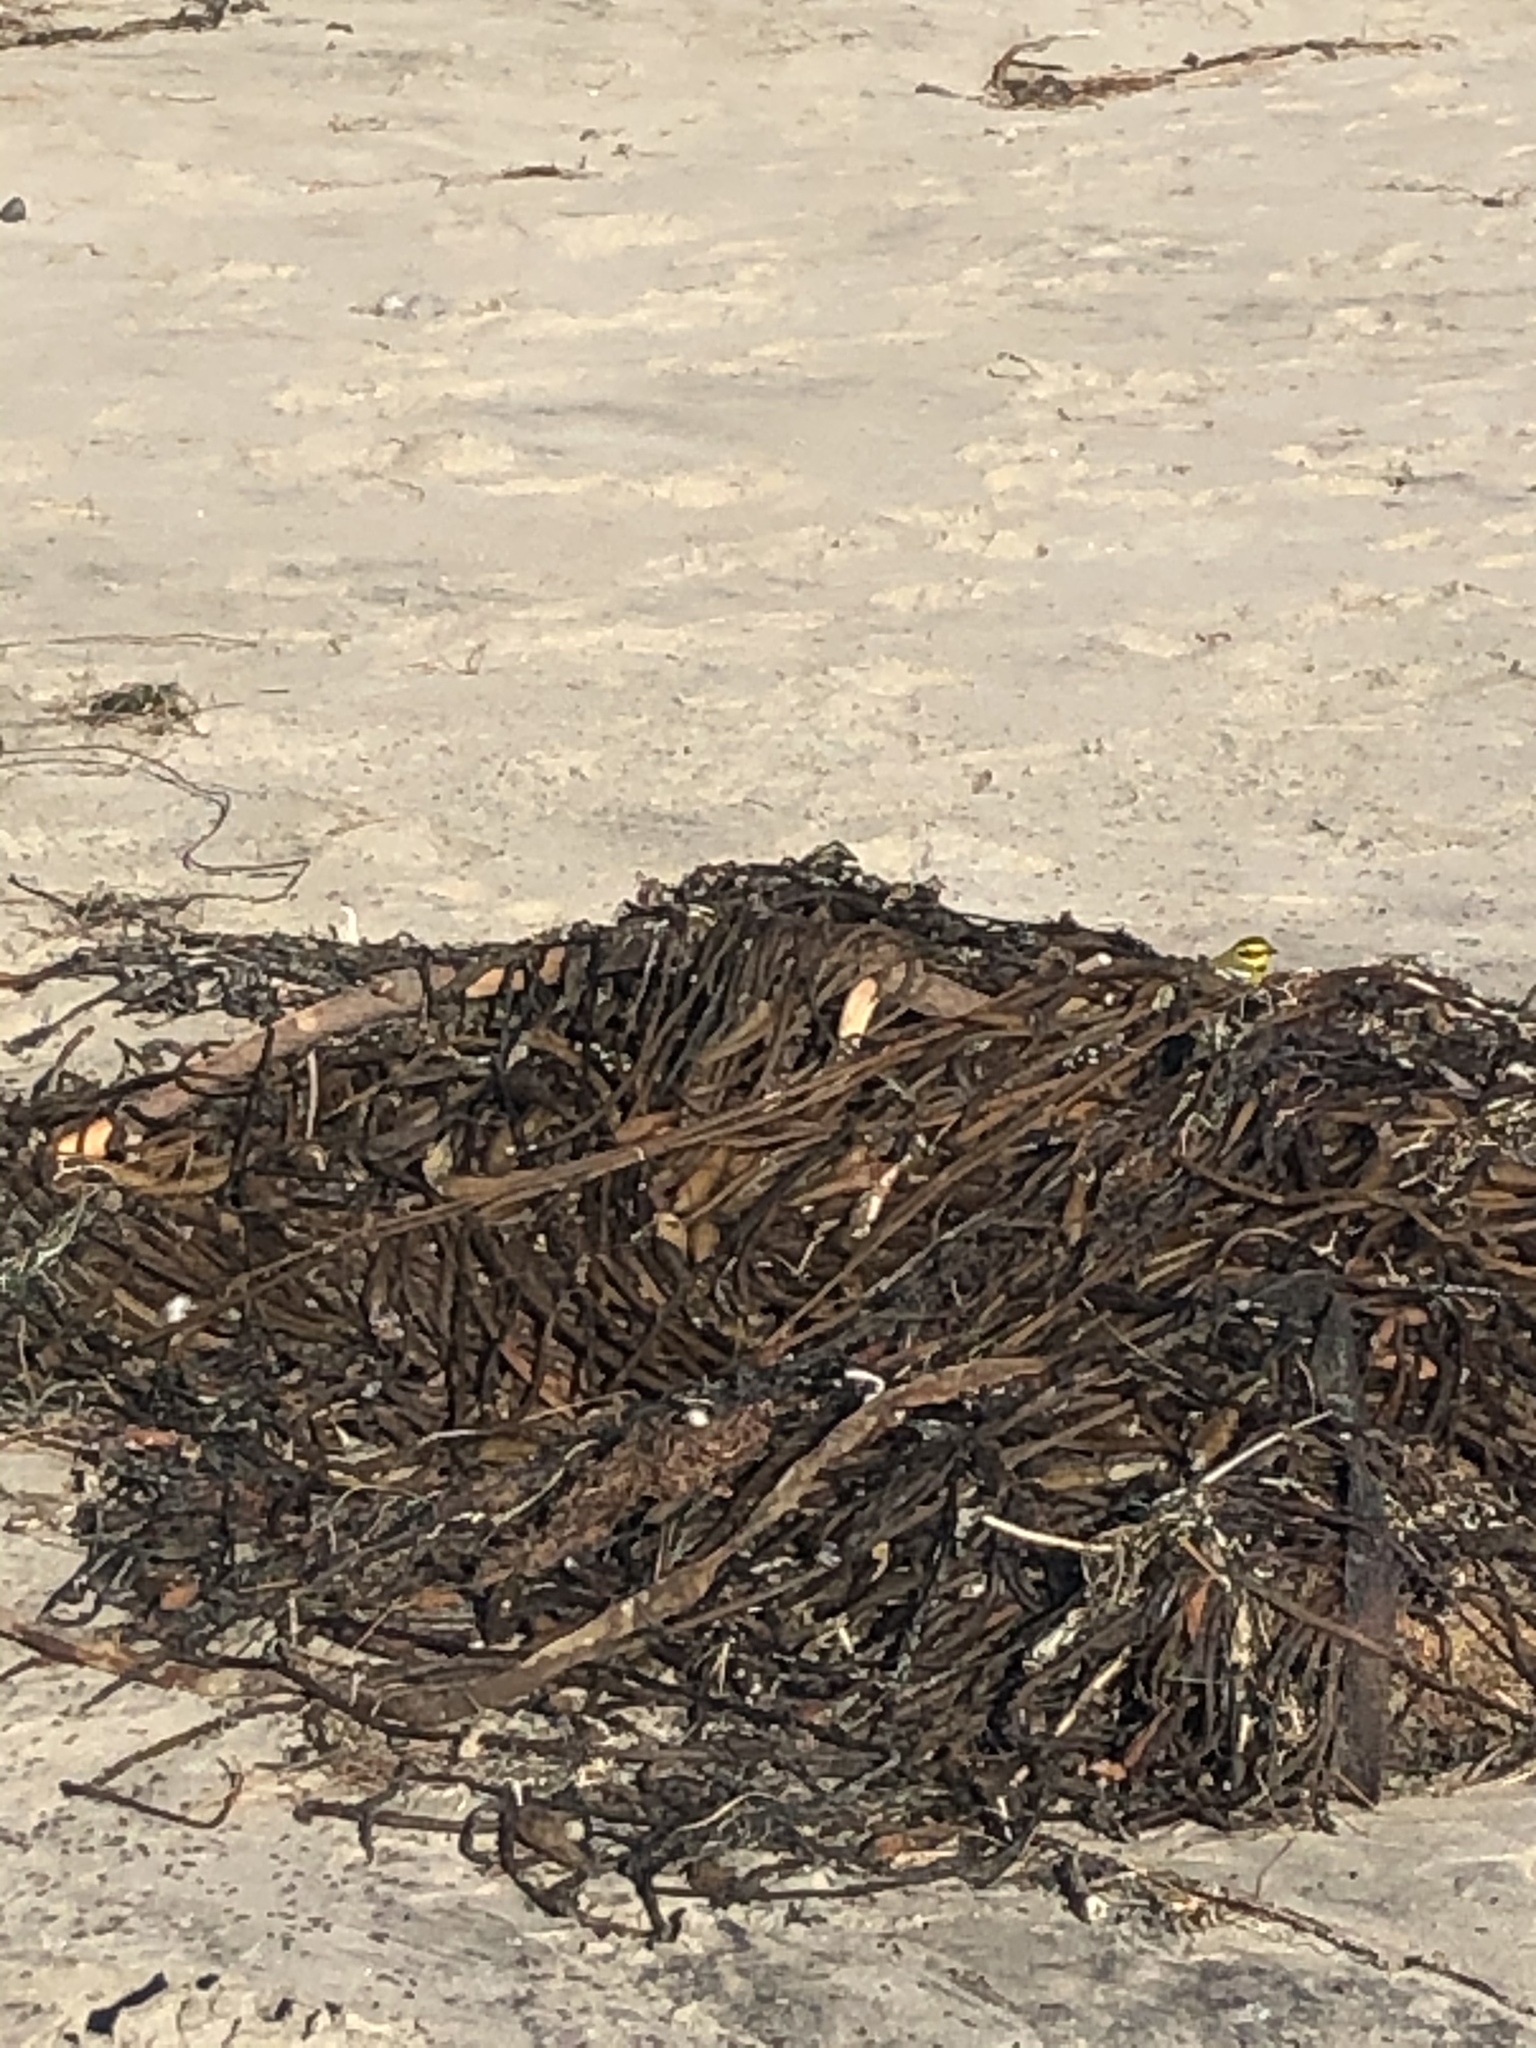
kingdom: Animalia
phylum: Chordata
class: Aves
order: Passeriformes
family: Parulidae
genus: Setophaga
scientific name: Setophaga townsendi
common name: Townsend's warbler
